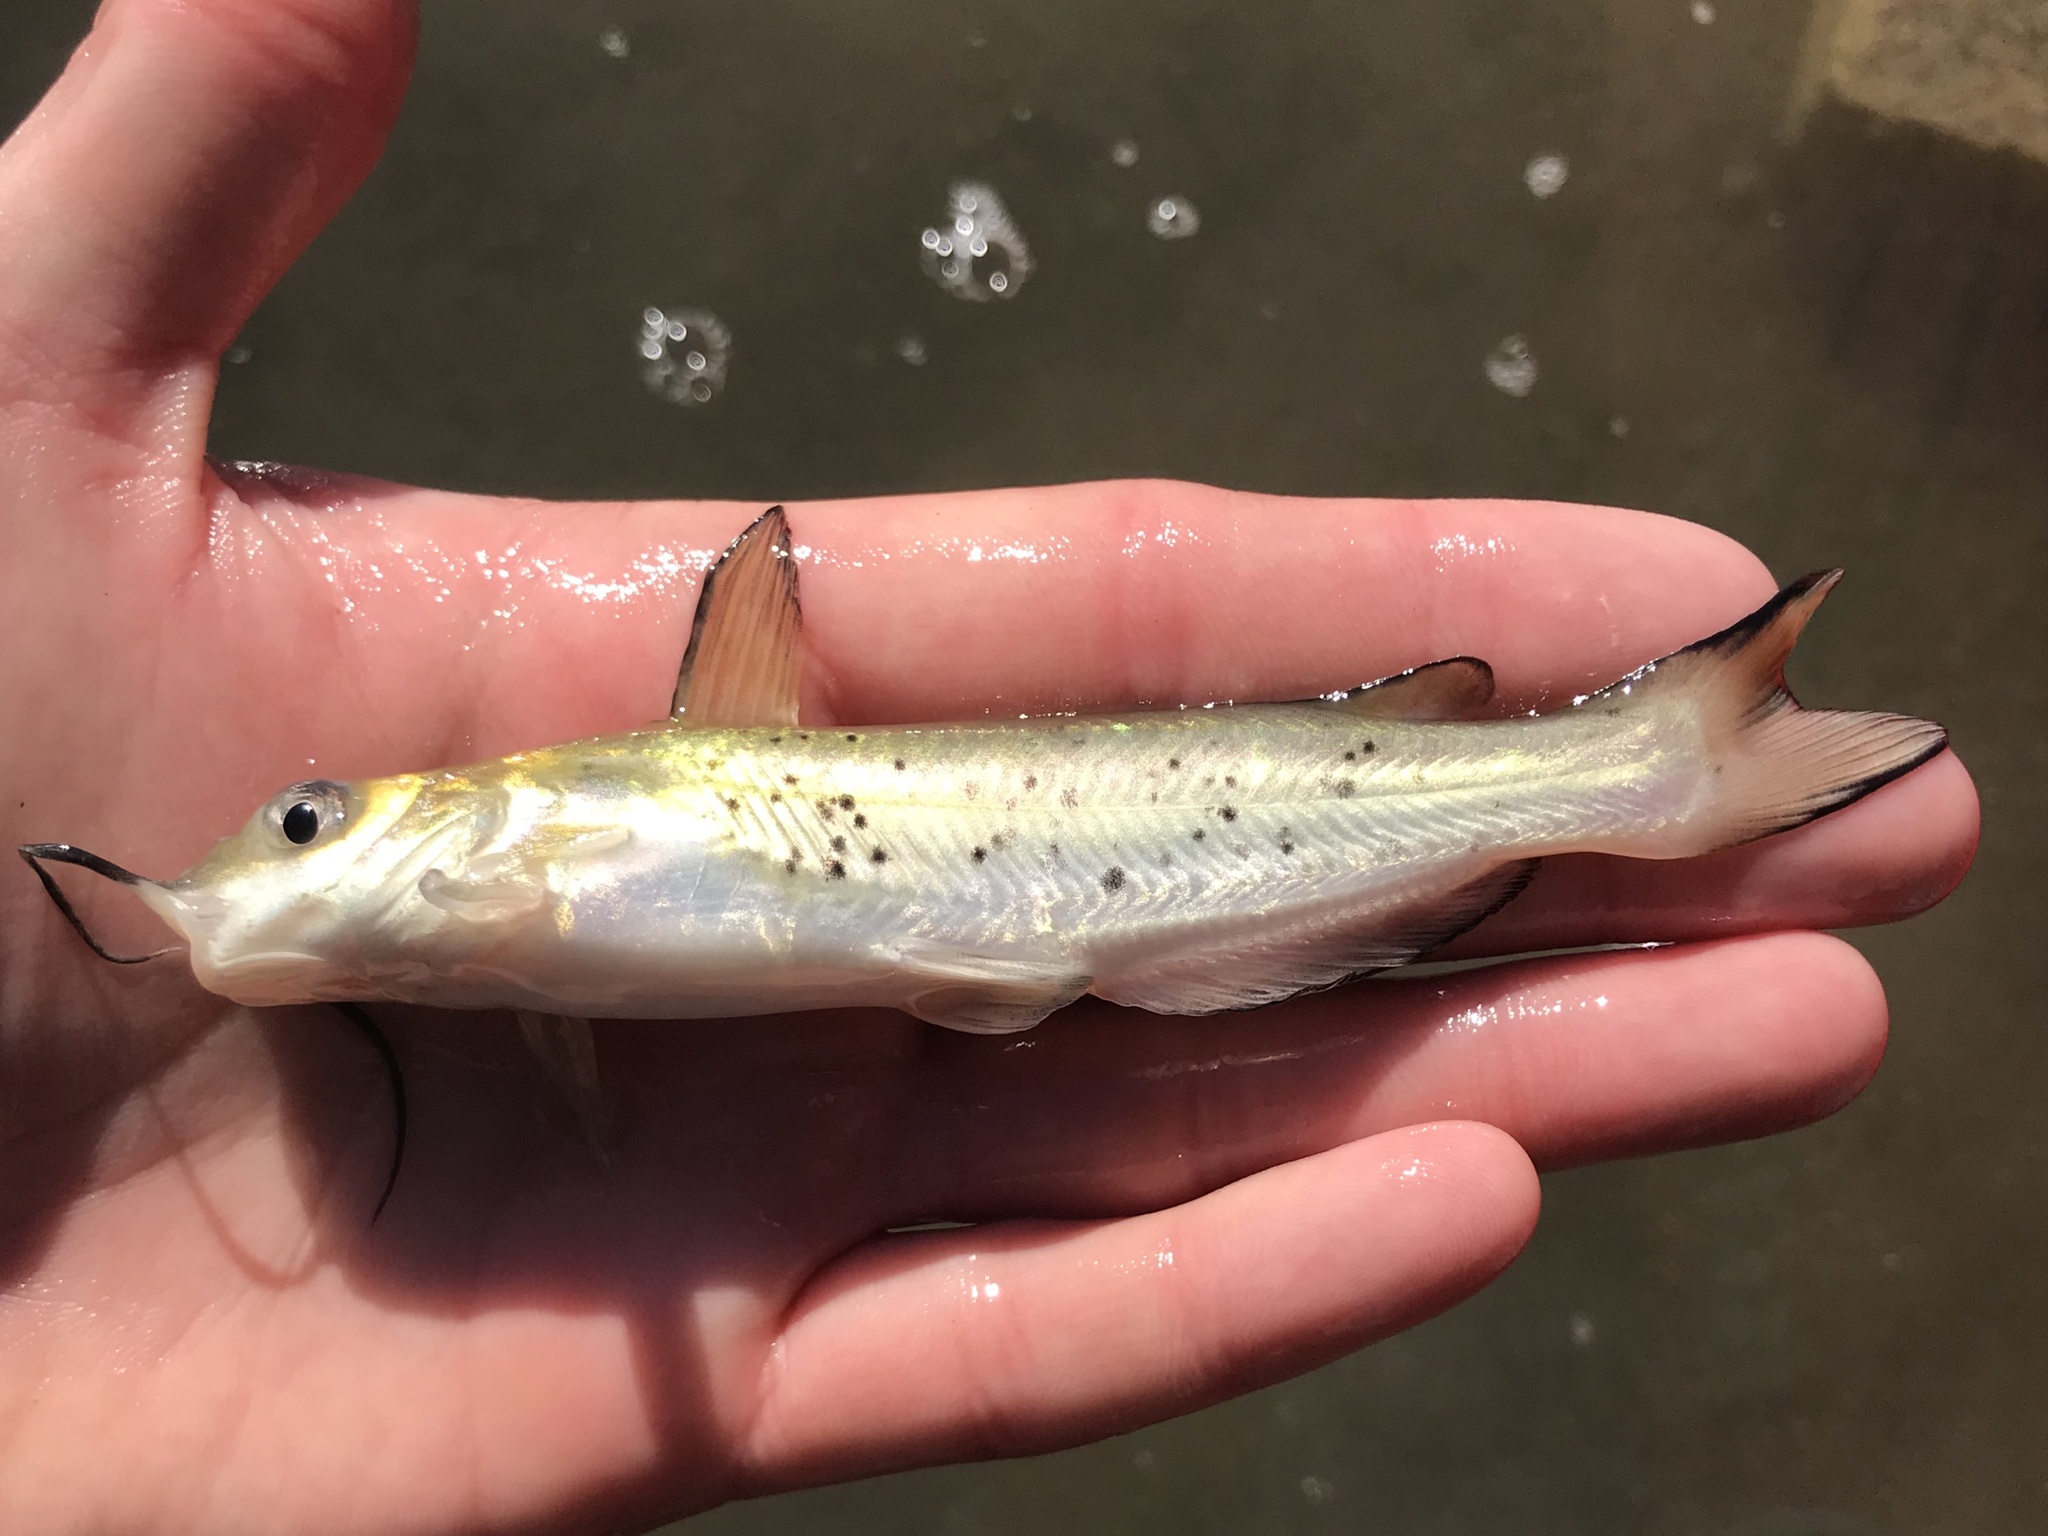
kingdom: Animalia
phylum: Chordata
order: Siluriformes
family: Ictaluridae
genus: Ictalurus
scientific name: Ictalurus punctatus
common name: Channel catfish
